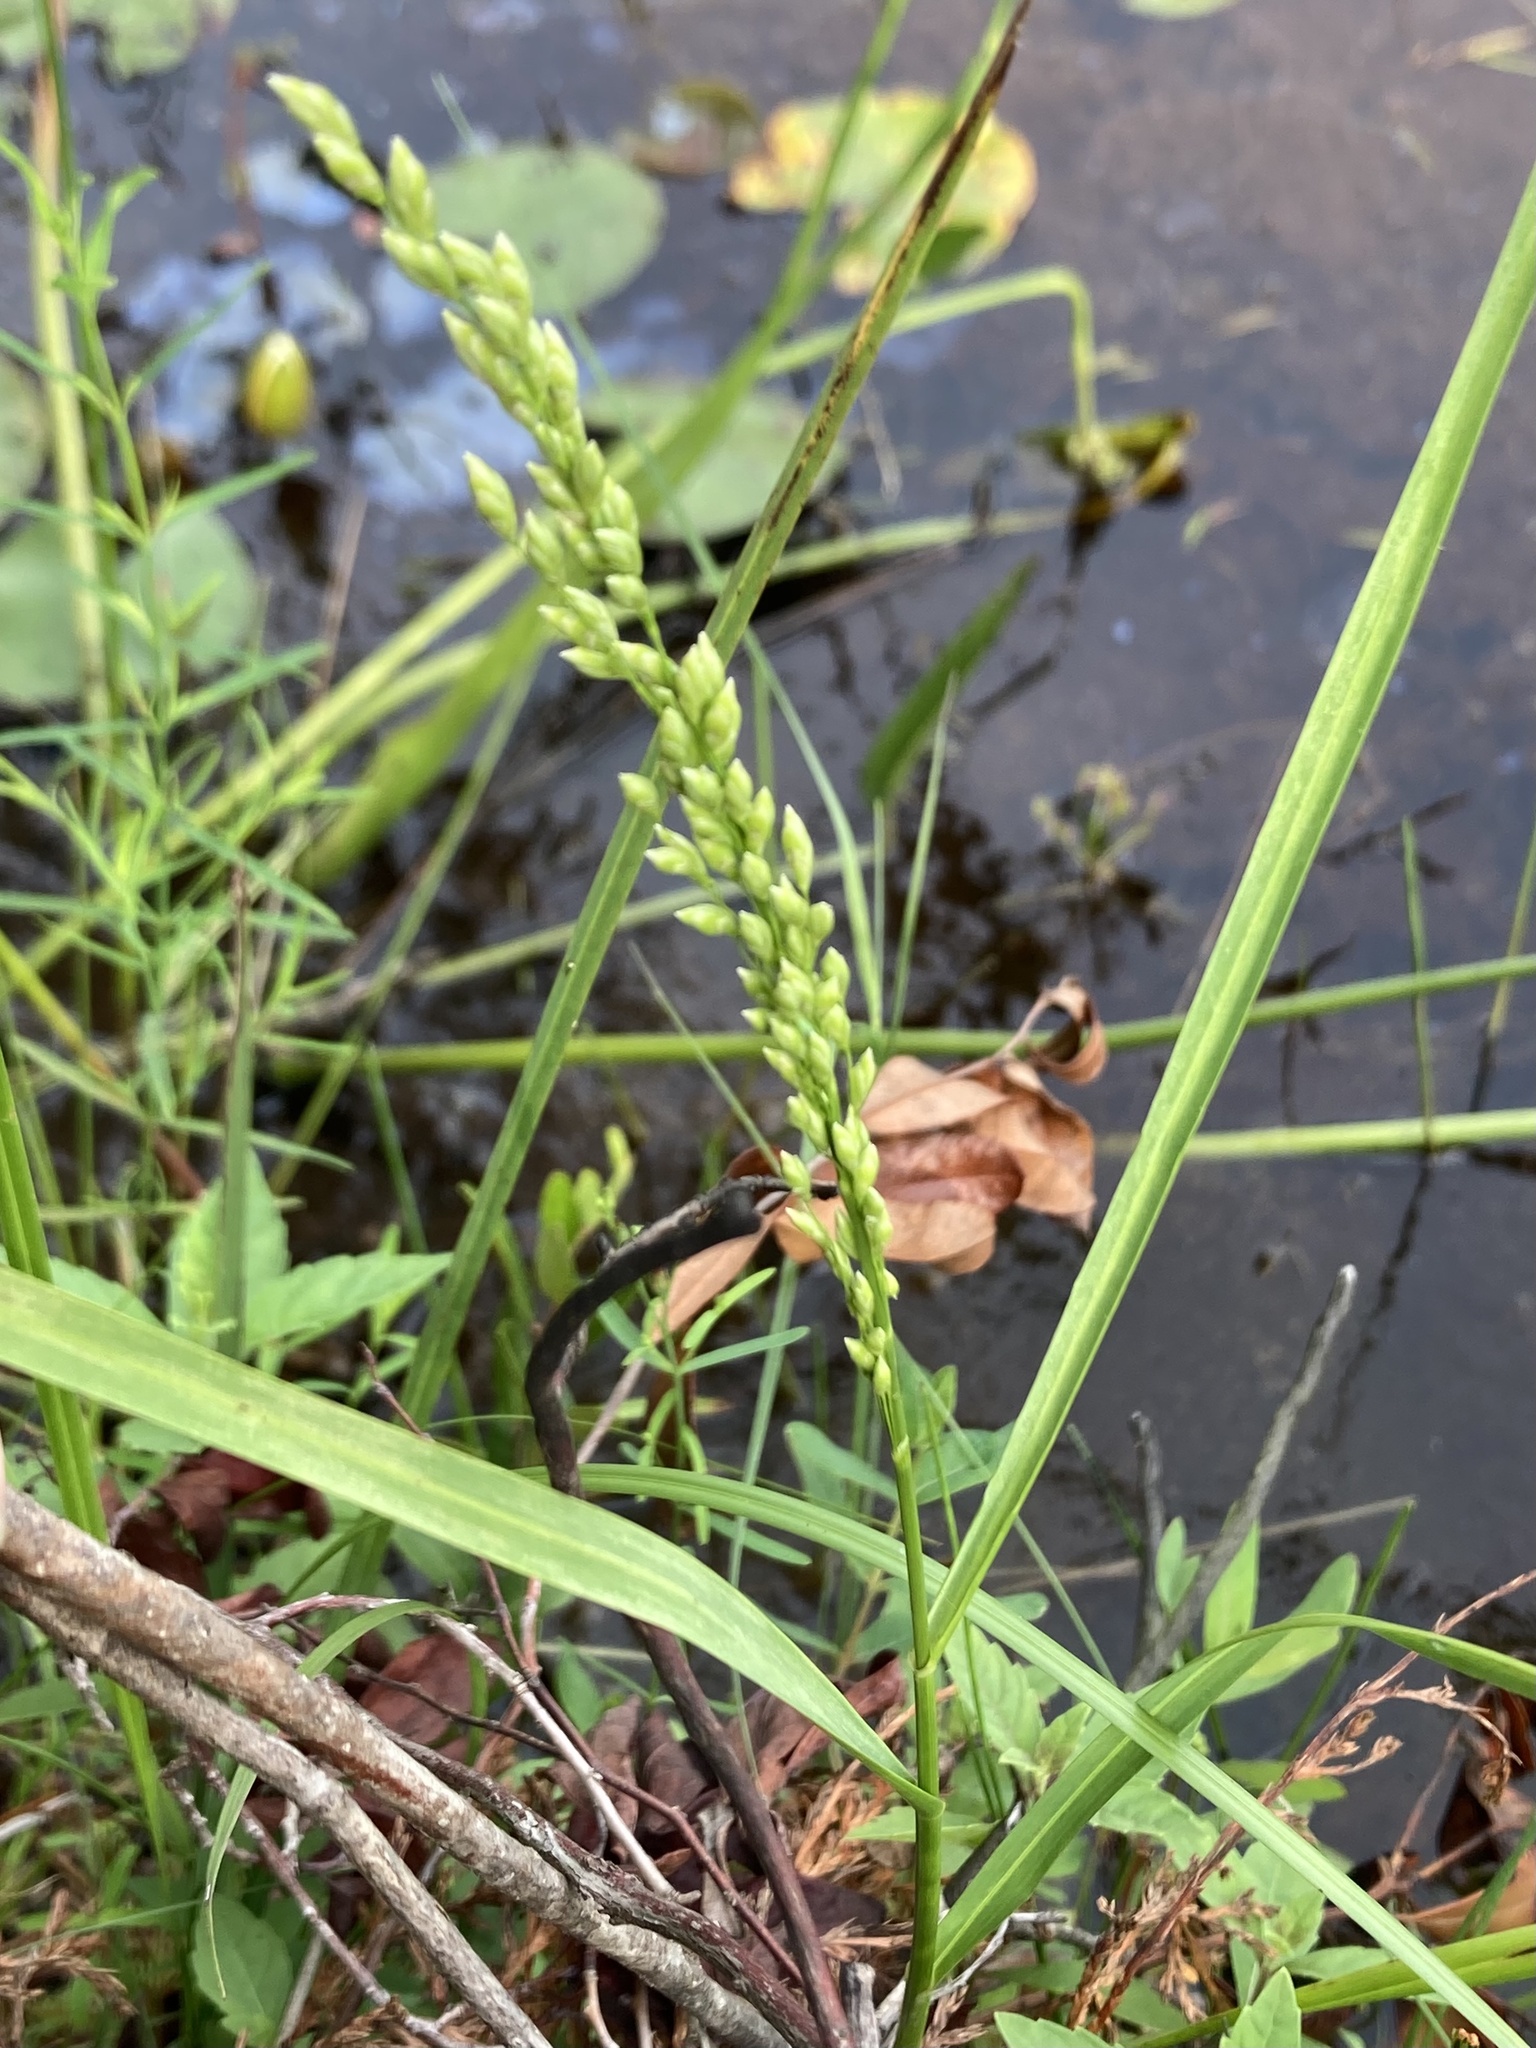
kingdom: Plantae
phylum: Tracheophyta
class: Liliopsida
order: Poales
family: Poaceae
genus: Glyceria
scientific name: Glyceria obtusa
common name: Atlantic mannagrass
